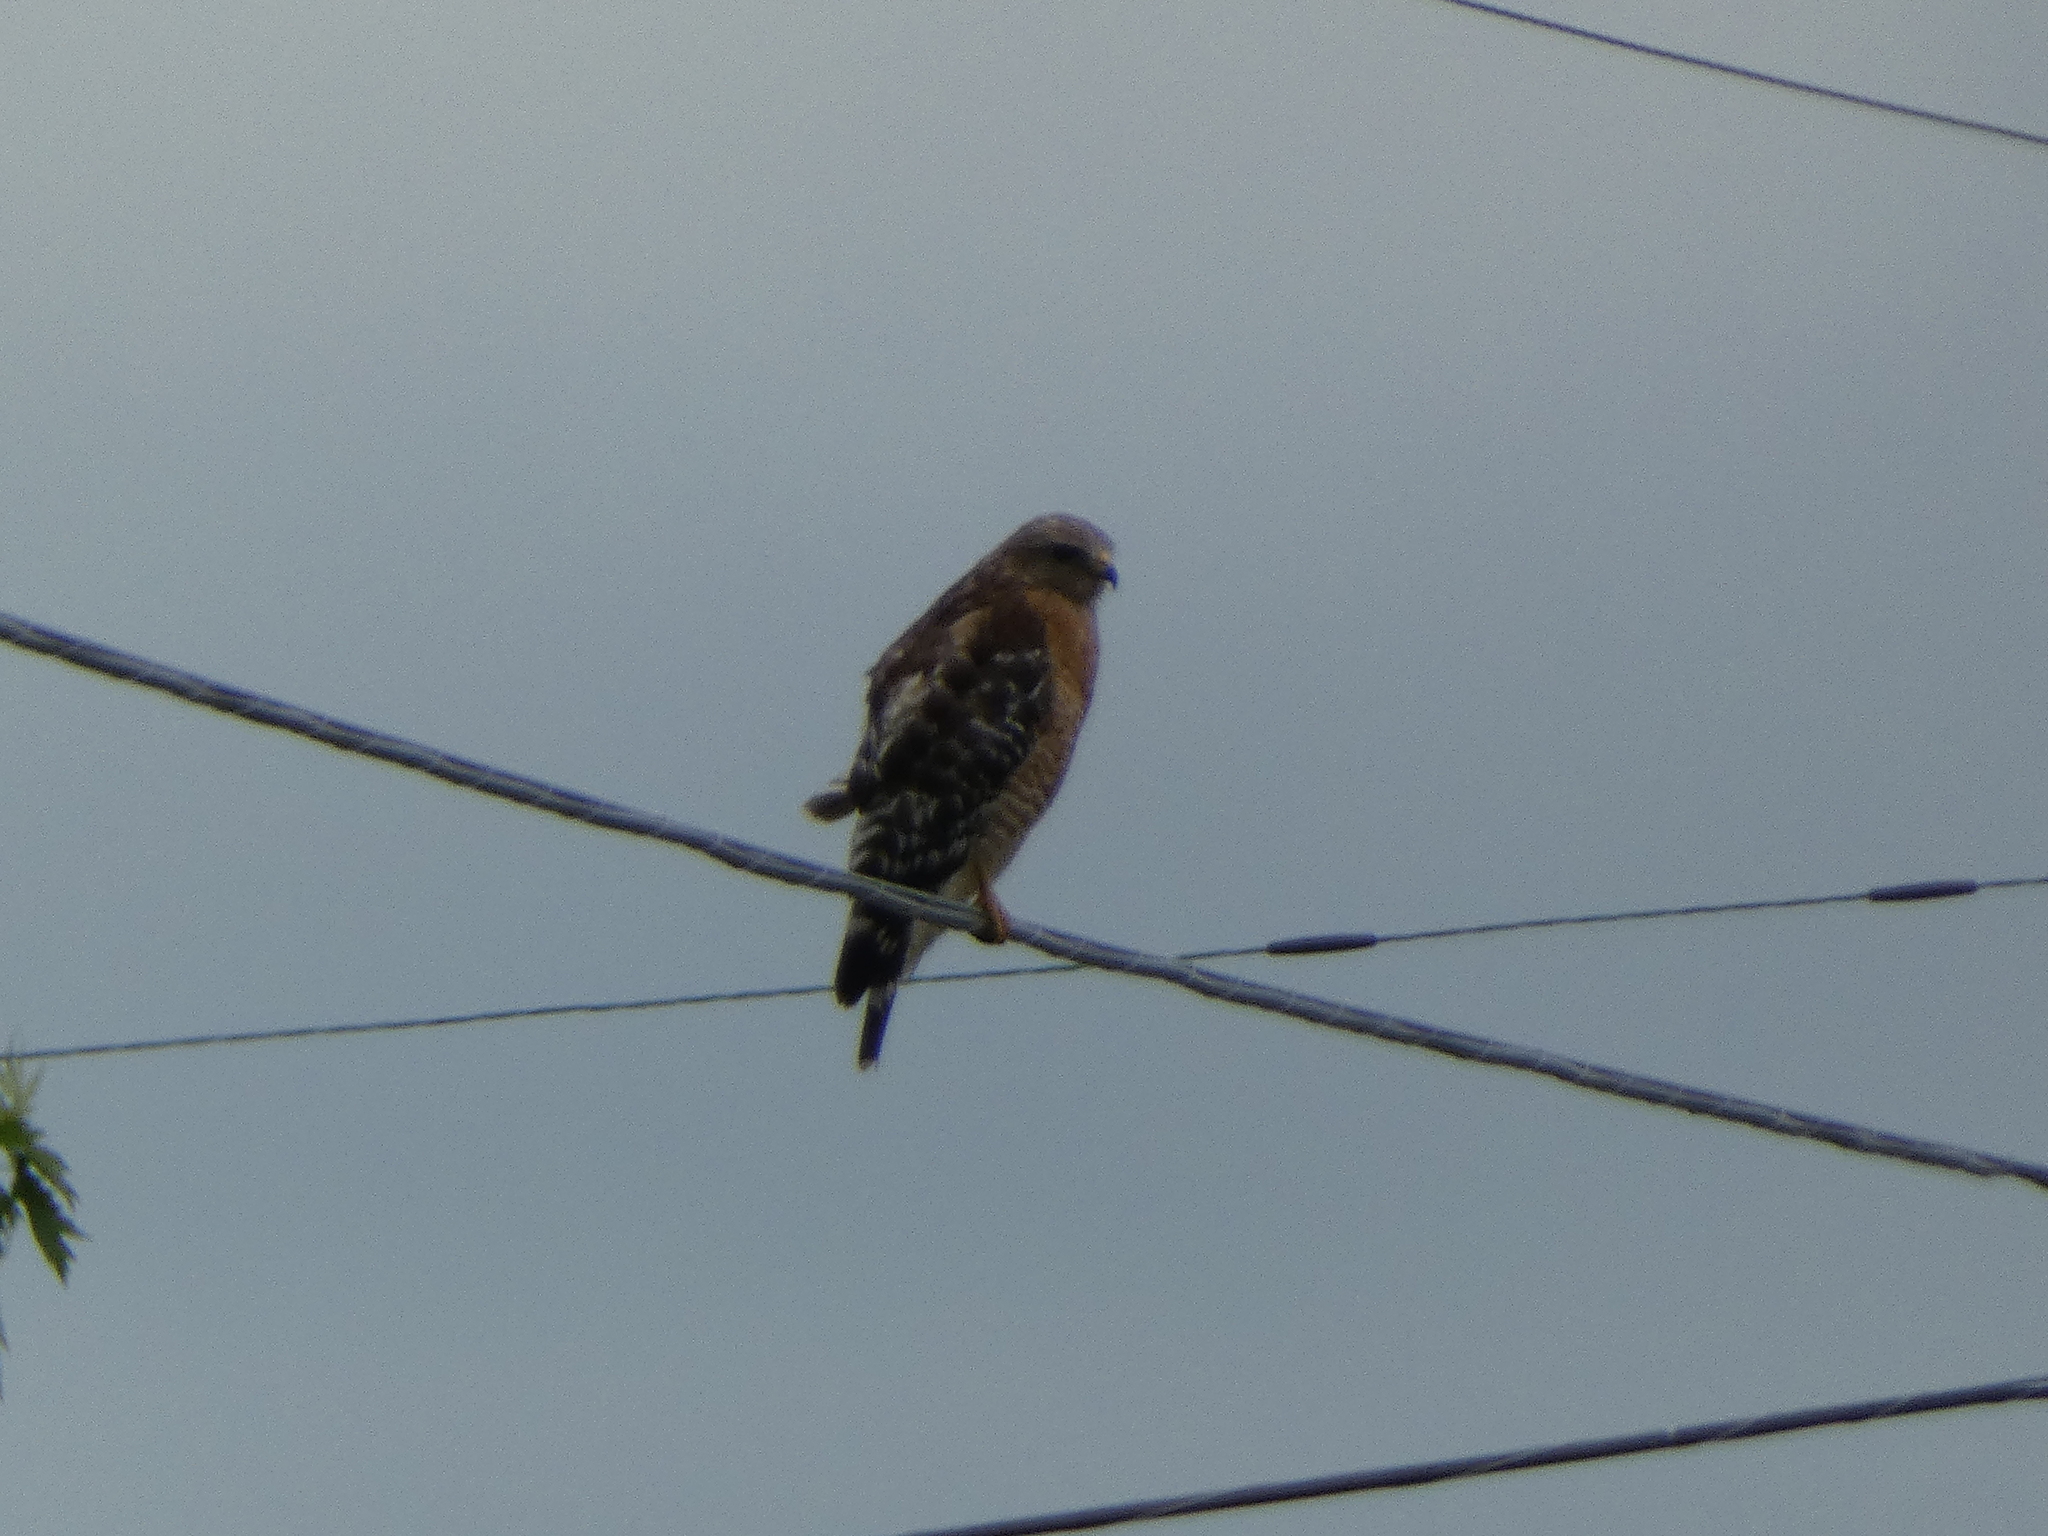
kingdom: Animalia
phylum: Chordata
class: Aves
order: Accipitriformes
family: Accipitridae
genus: Buteo
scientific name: Buteo lineatus
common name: Red-shouldered hawk
